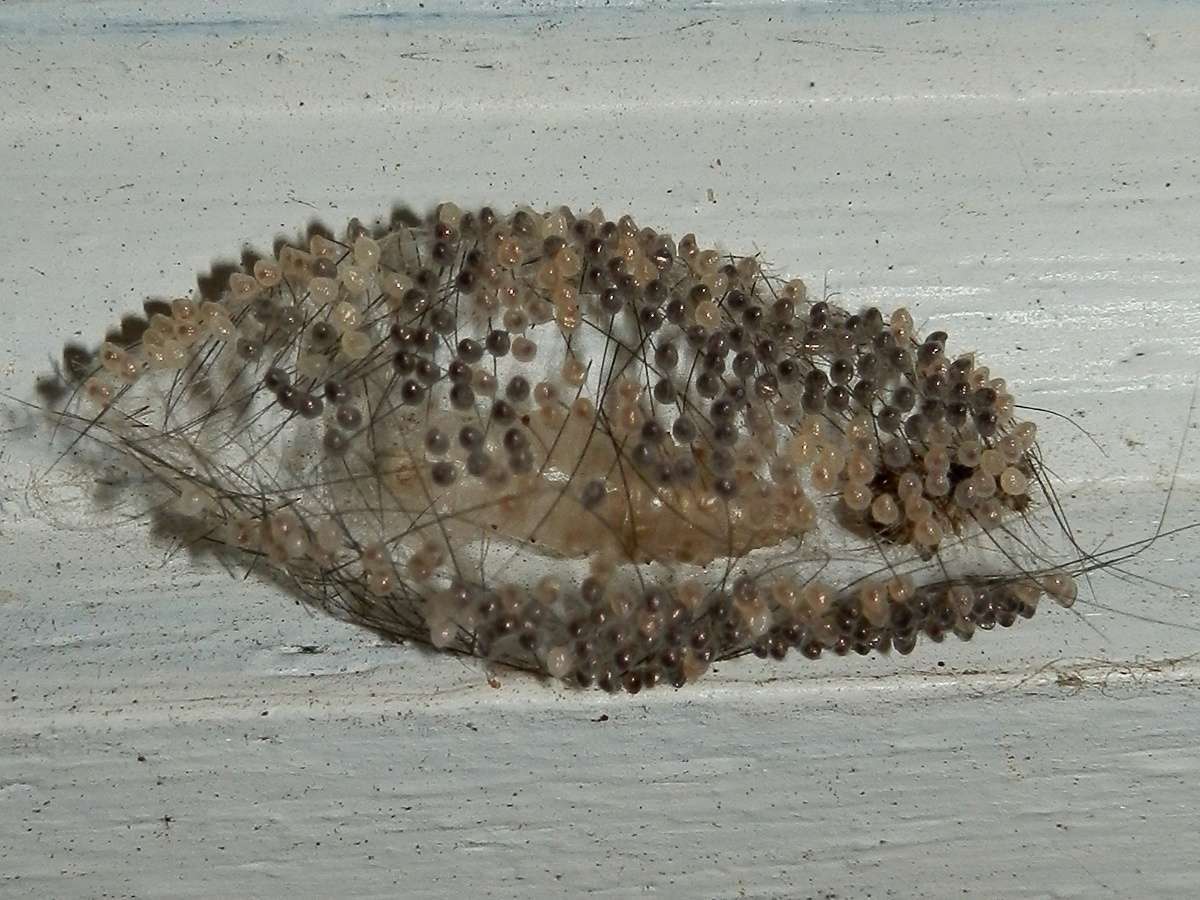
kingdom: Animalia
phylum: Arthropoda
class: Insecta
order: Lepidoptera
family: Erebidae
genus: Anestia
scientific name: Anestia
